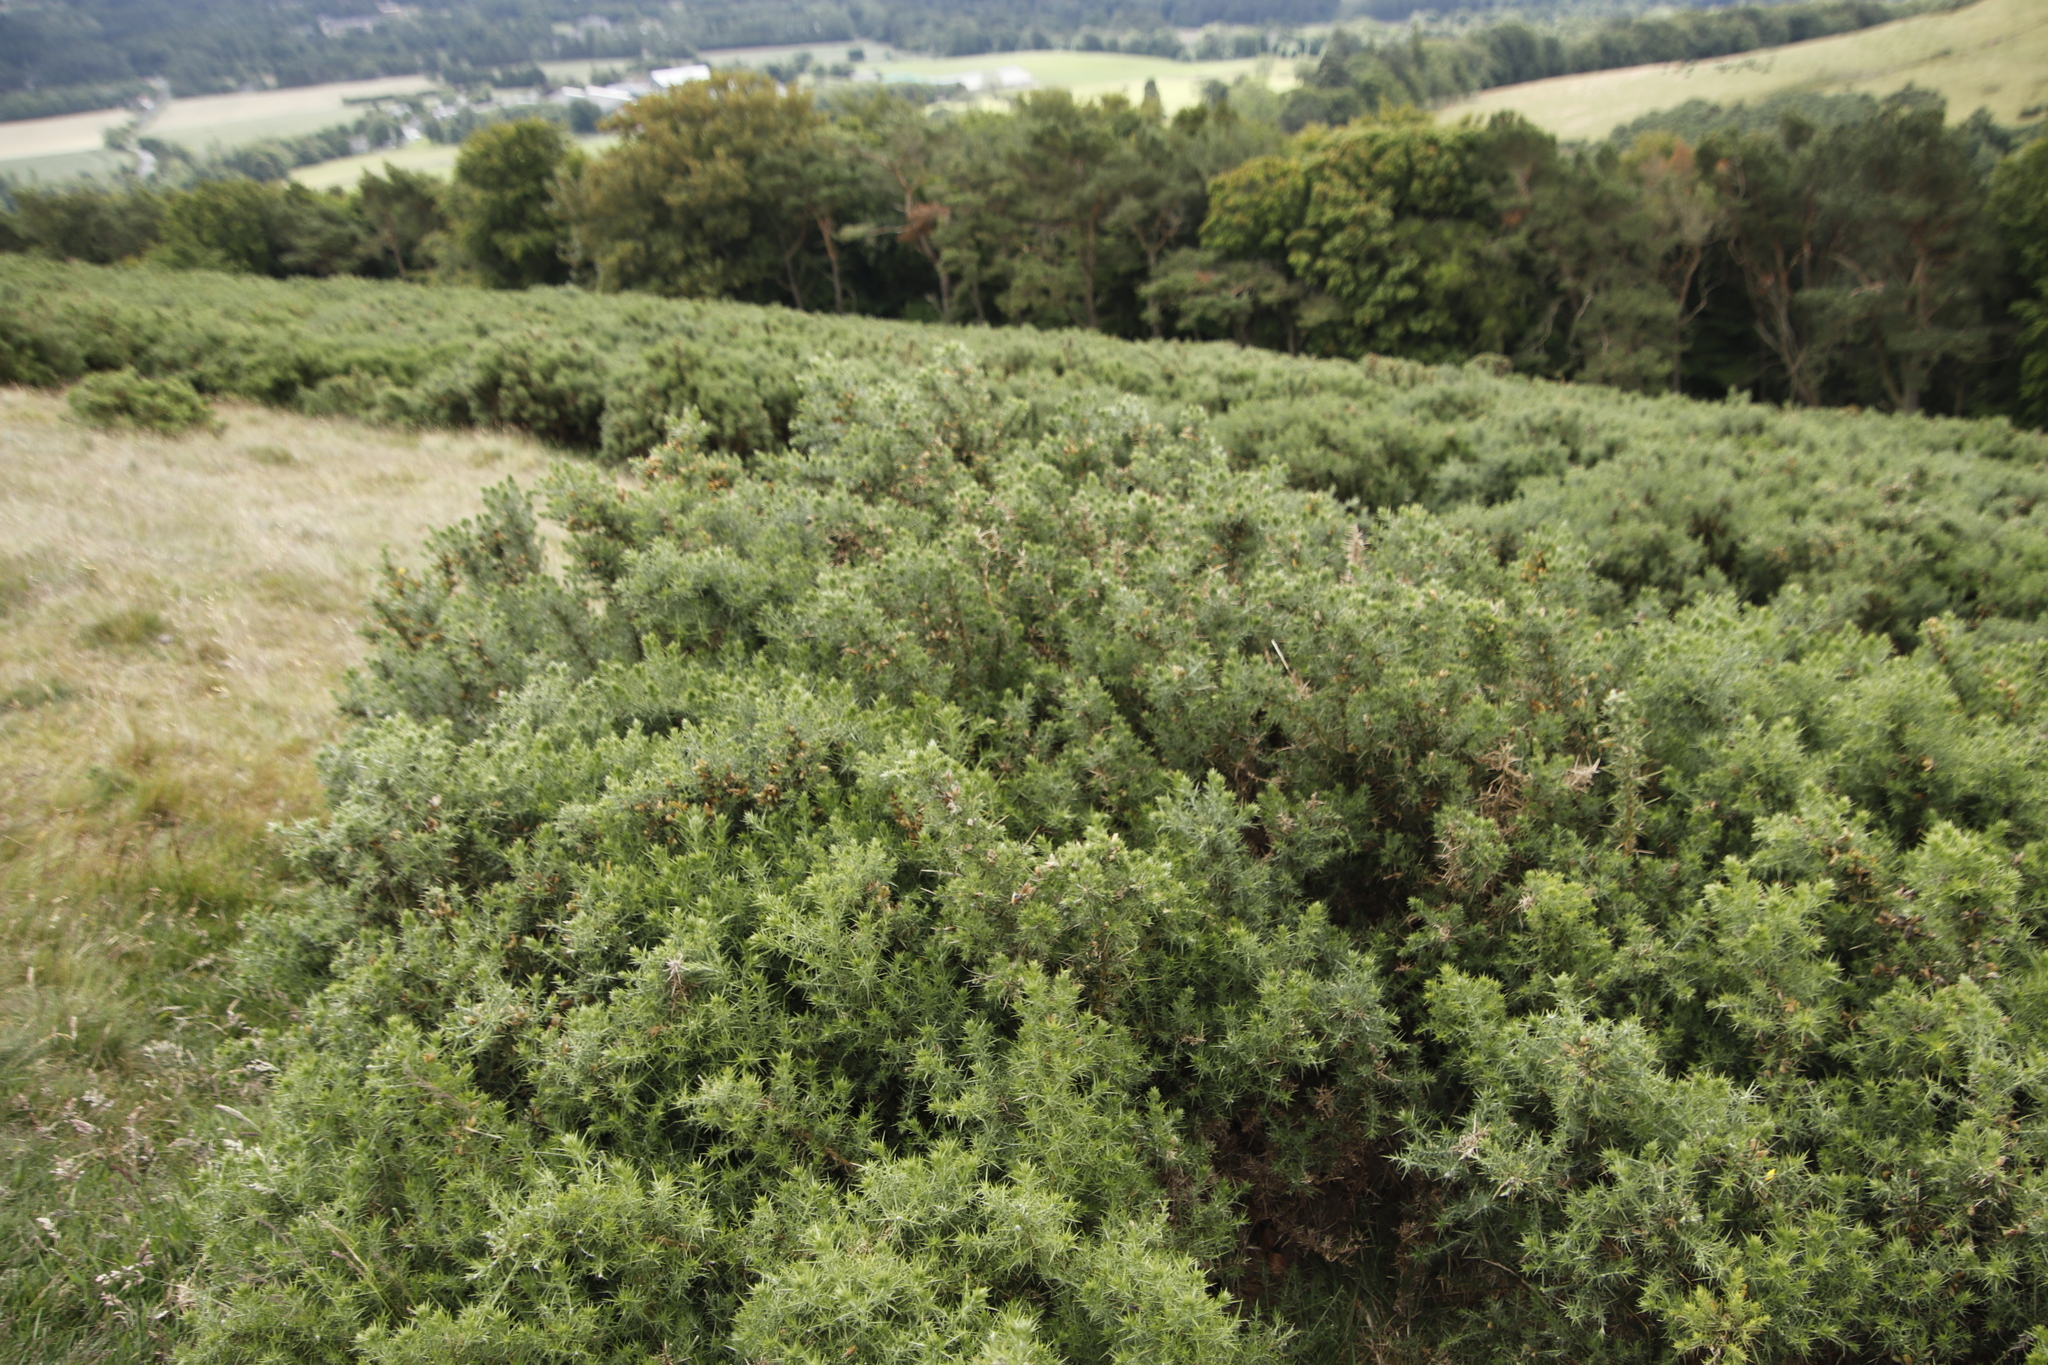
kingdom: Plantae
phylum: Tracheophyta
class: Magnoliopsida
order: Fabales
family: Fabaceae
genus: Ulex
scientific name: Ulex europaeus
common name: Common gorse
